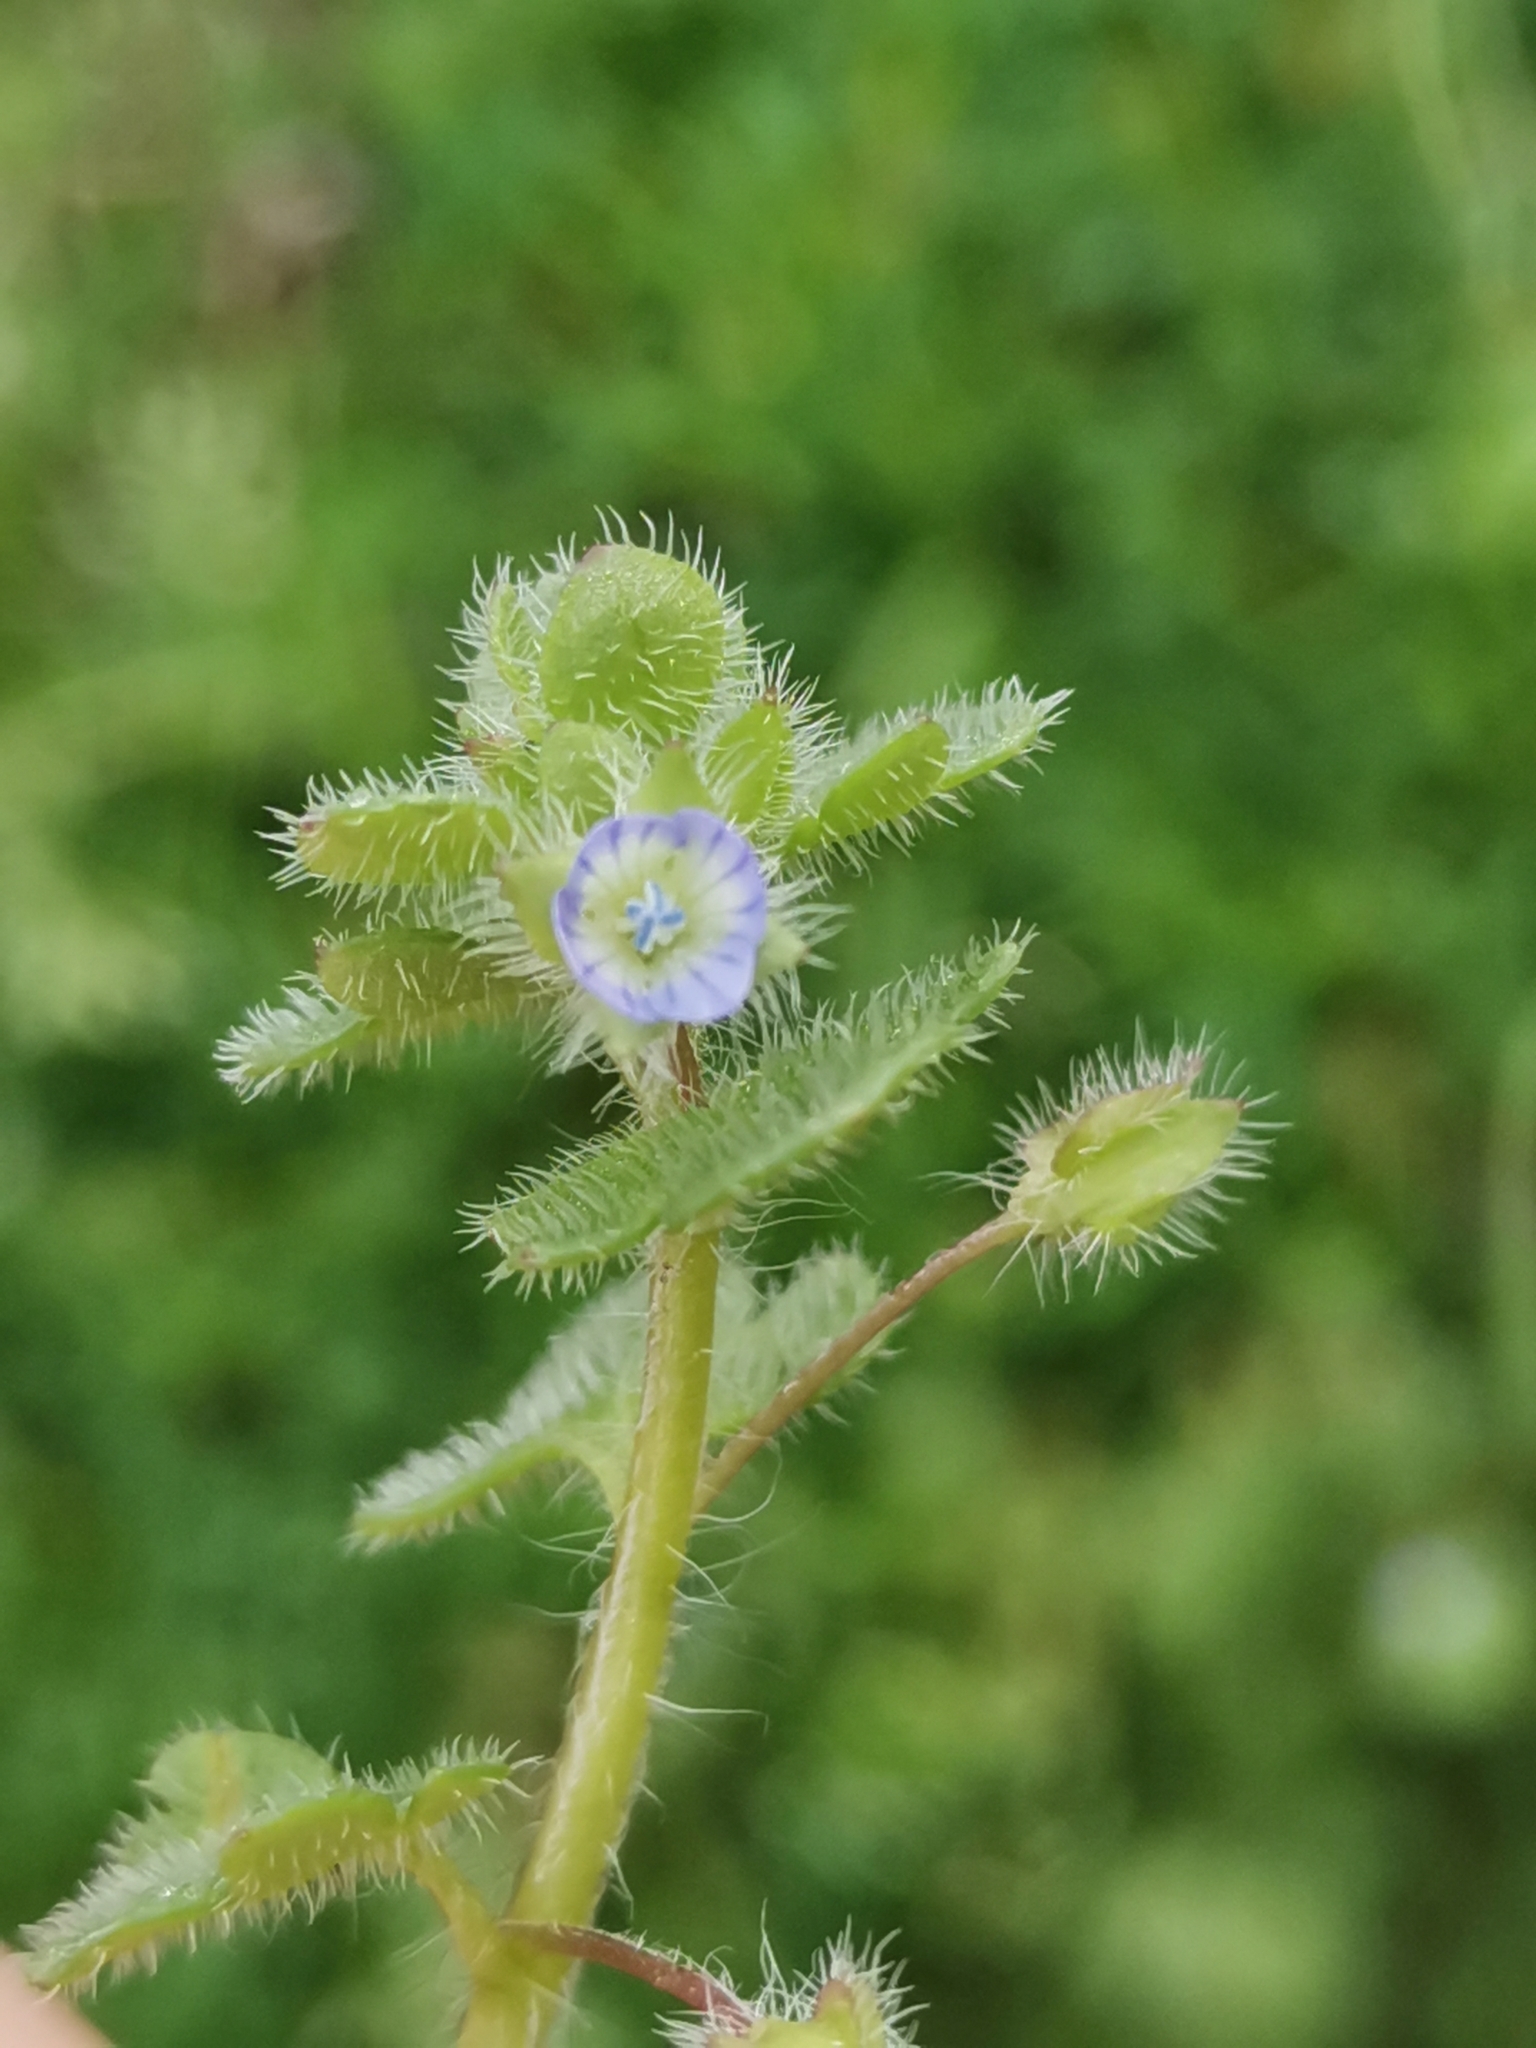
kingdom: Plantae
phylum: Tracheophyta
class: Magnoliopsida
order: Lamiales
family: Plantaginaceae
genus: Veronica
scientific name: Veronica hederifolia
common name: Ivy-leaved speedwell
